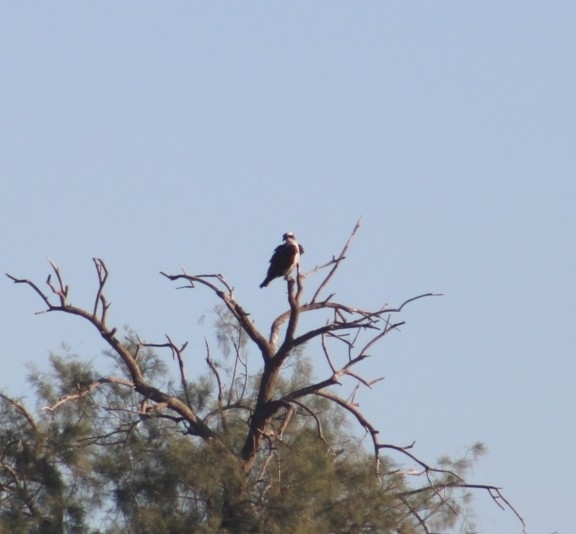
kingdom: Animalia
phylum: Chordata
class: Aves
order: Accipitriformes
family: Pandionidae
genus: Pandion
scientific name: Pandion haliaetus
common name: Osprey
